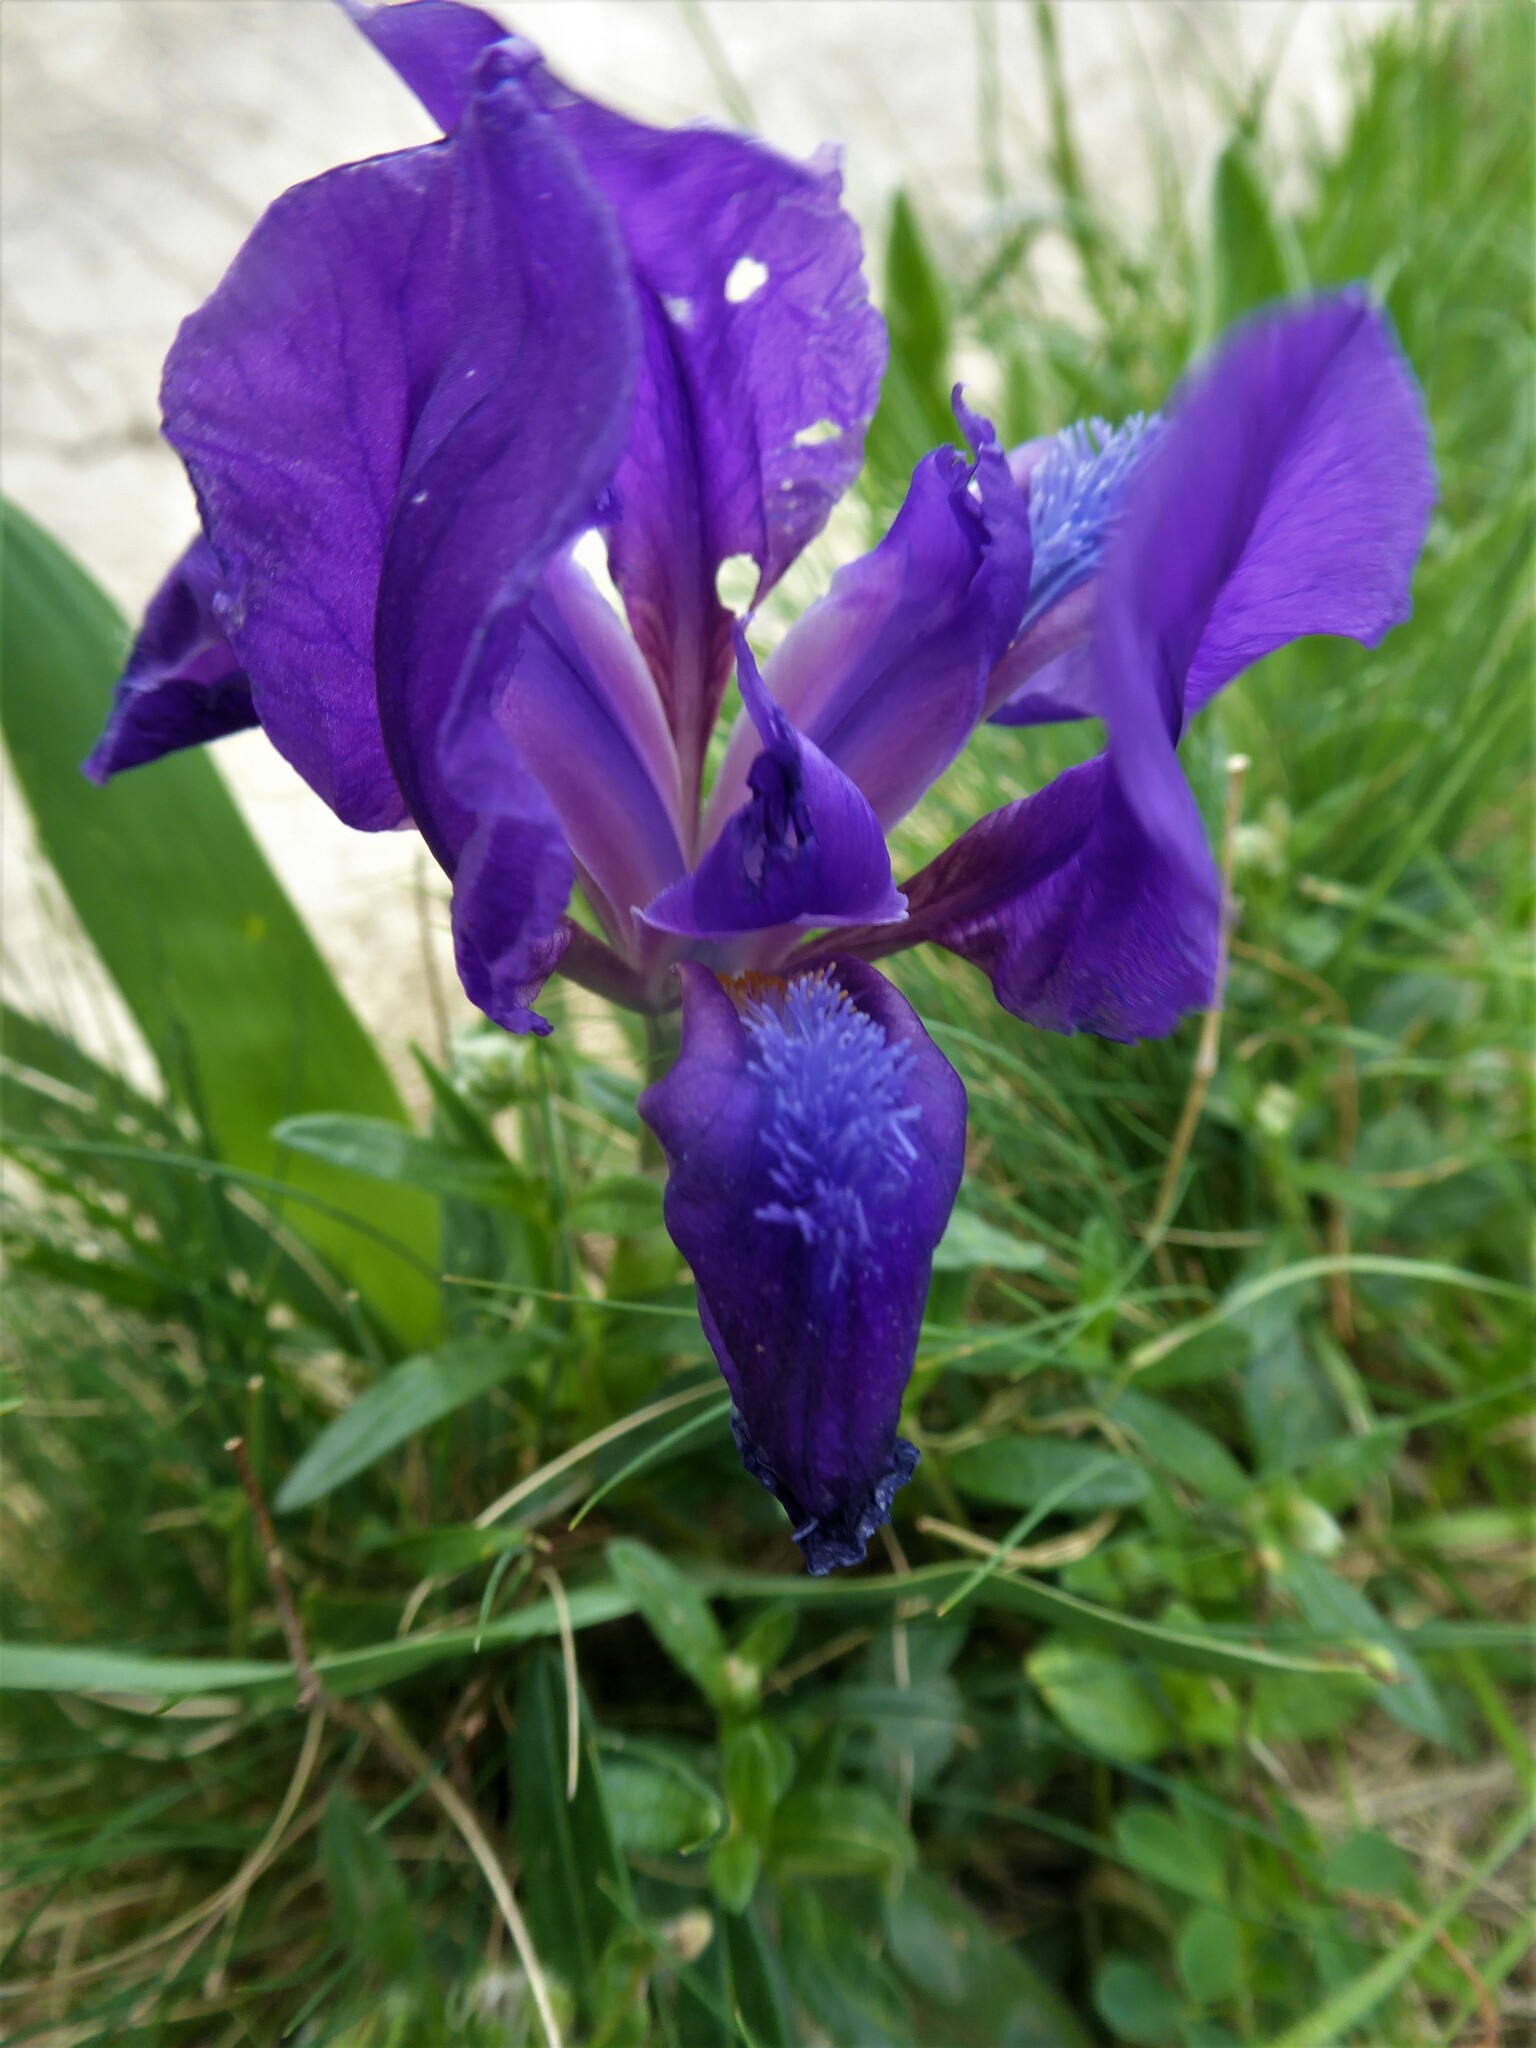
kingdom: Plantae
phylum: Tracheophyta
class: Liliopsida
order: Asparagales
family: Iridaceae
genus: Iris
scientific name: Iris pumila
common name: Dwarf iris
